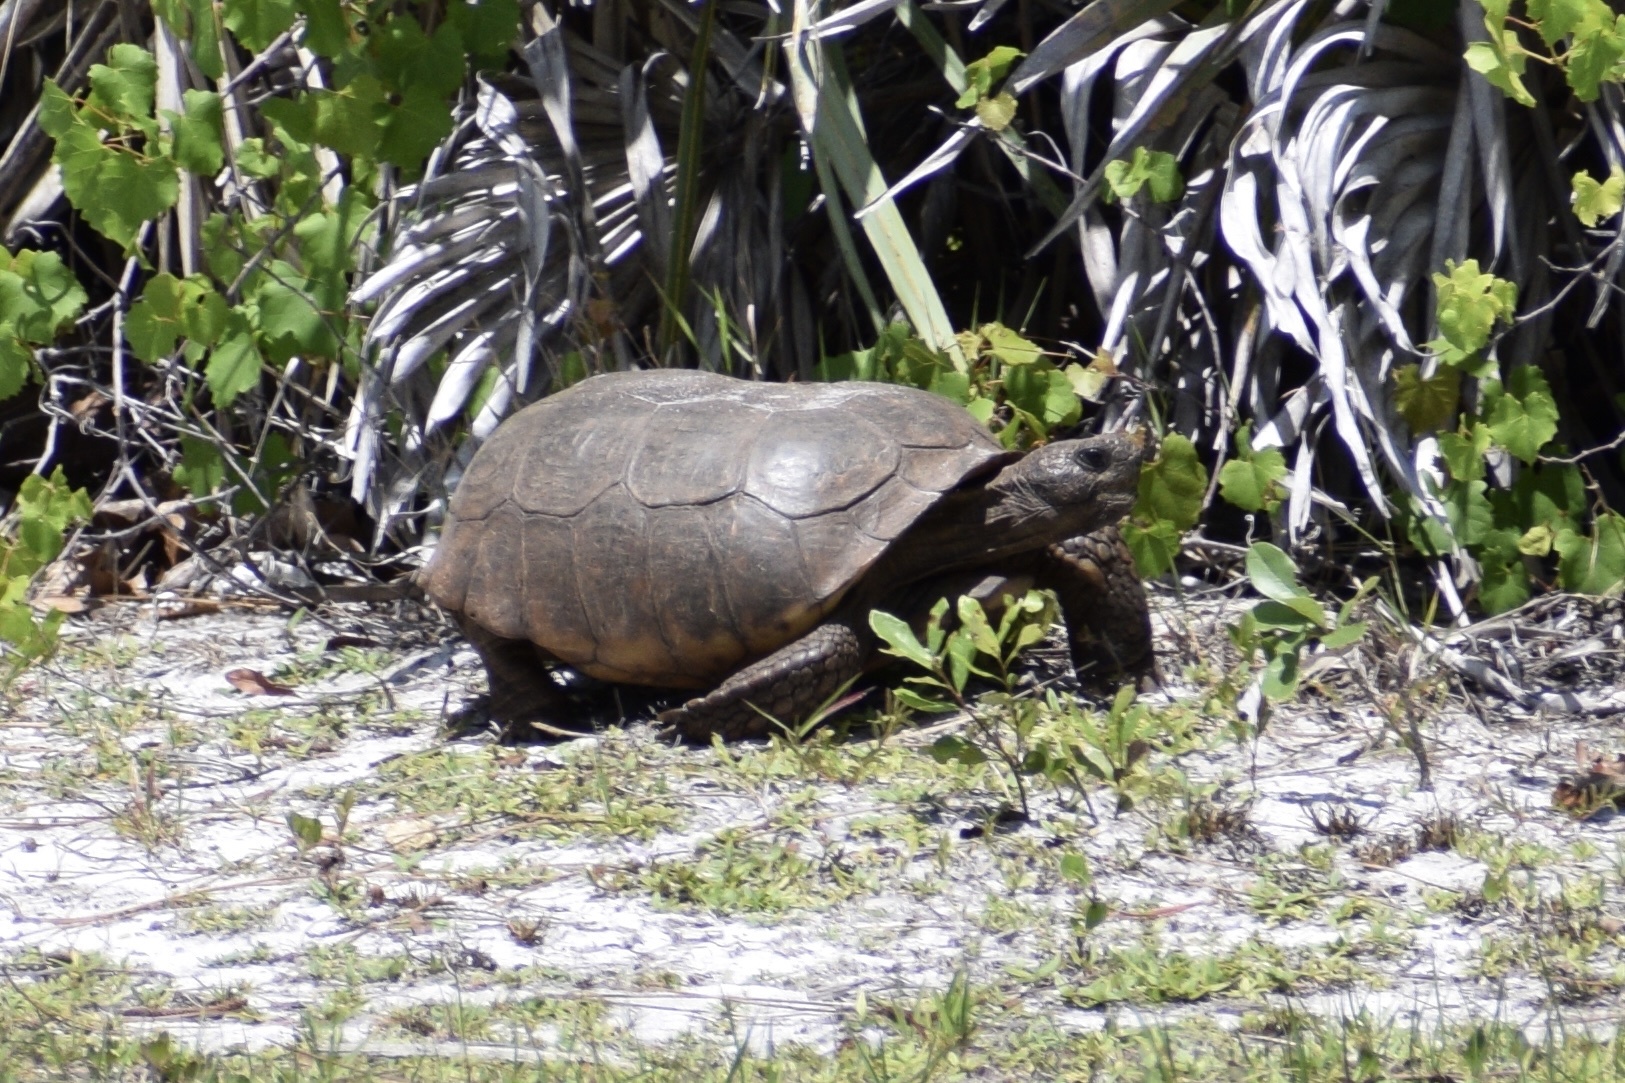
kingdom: Animalia
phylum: Chordata
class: Testudines
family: Testudinidae
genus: Gopherus
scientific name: Gopherus polyphemus
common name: Florida gopher tortoise
